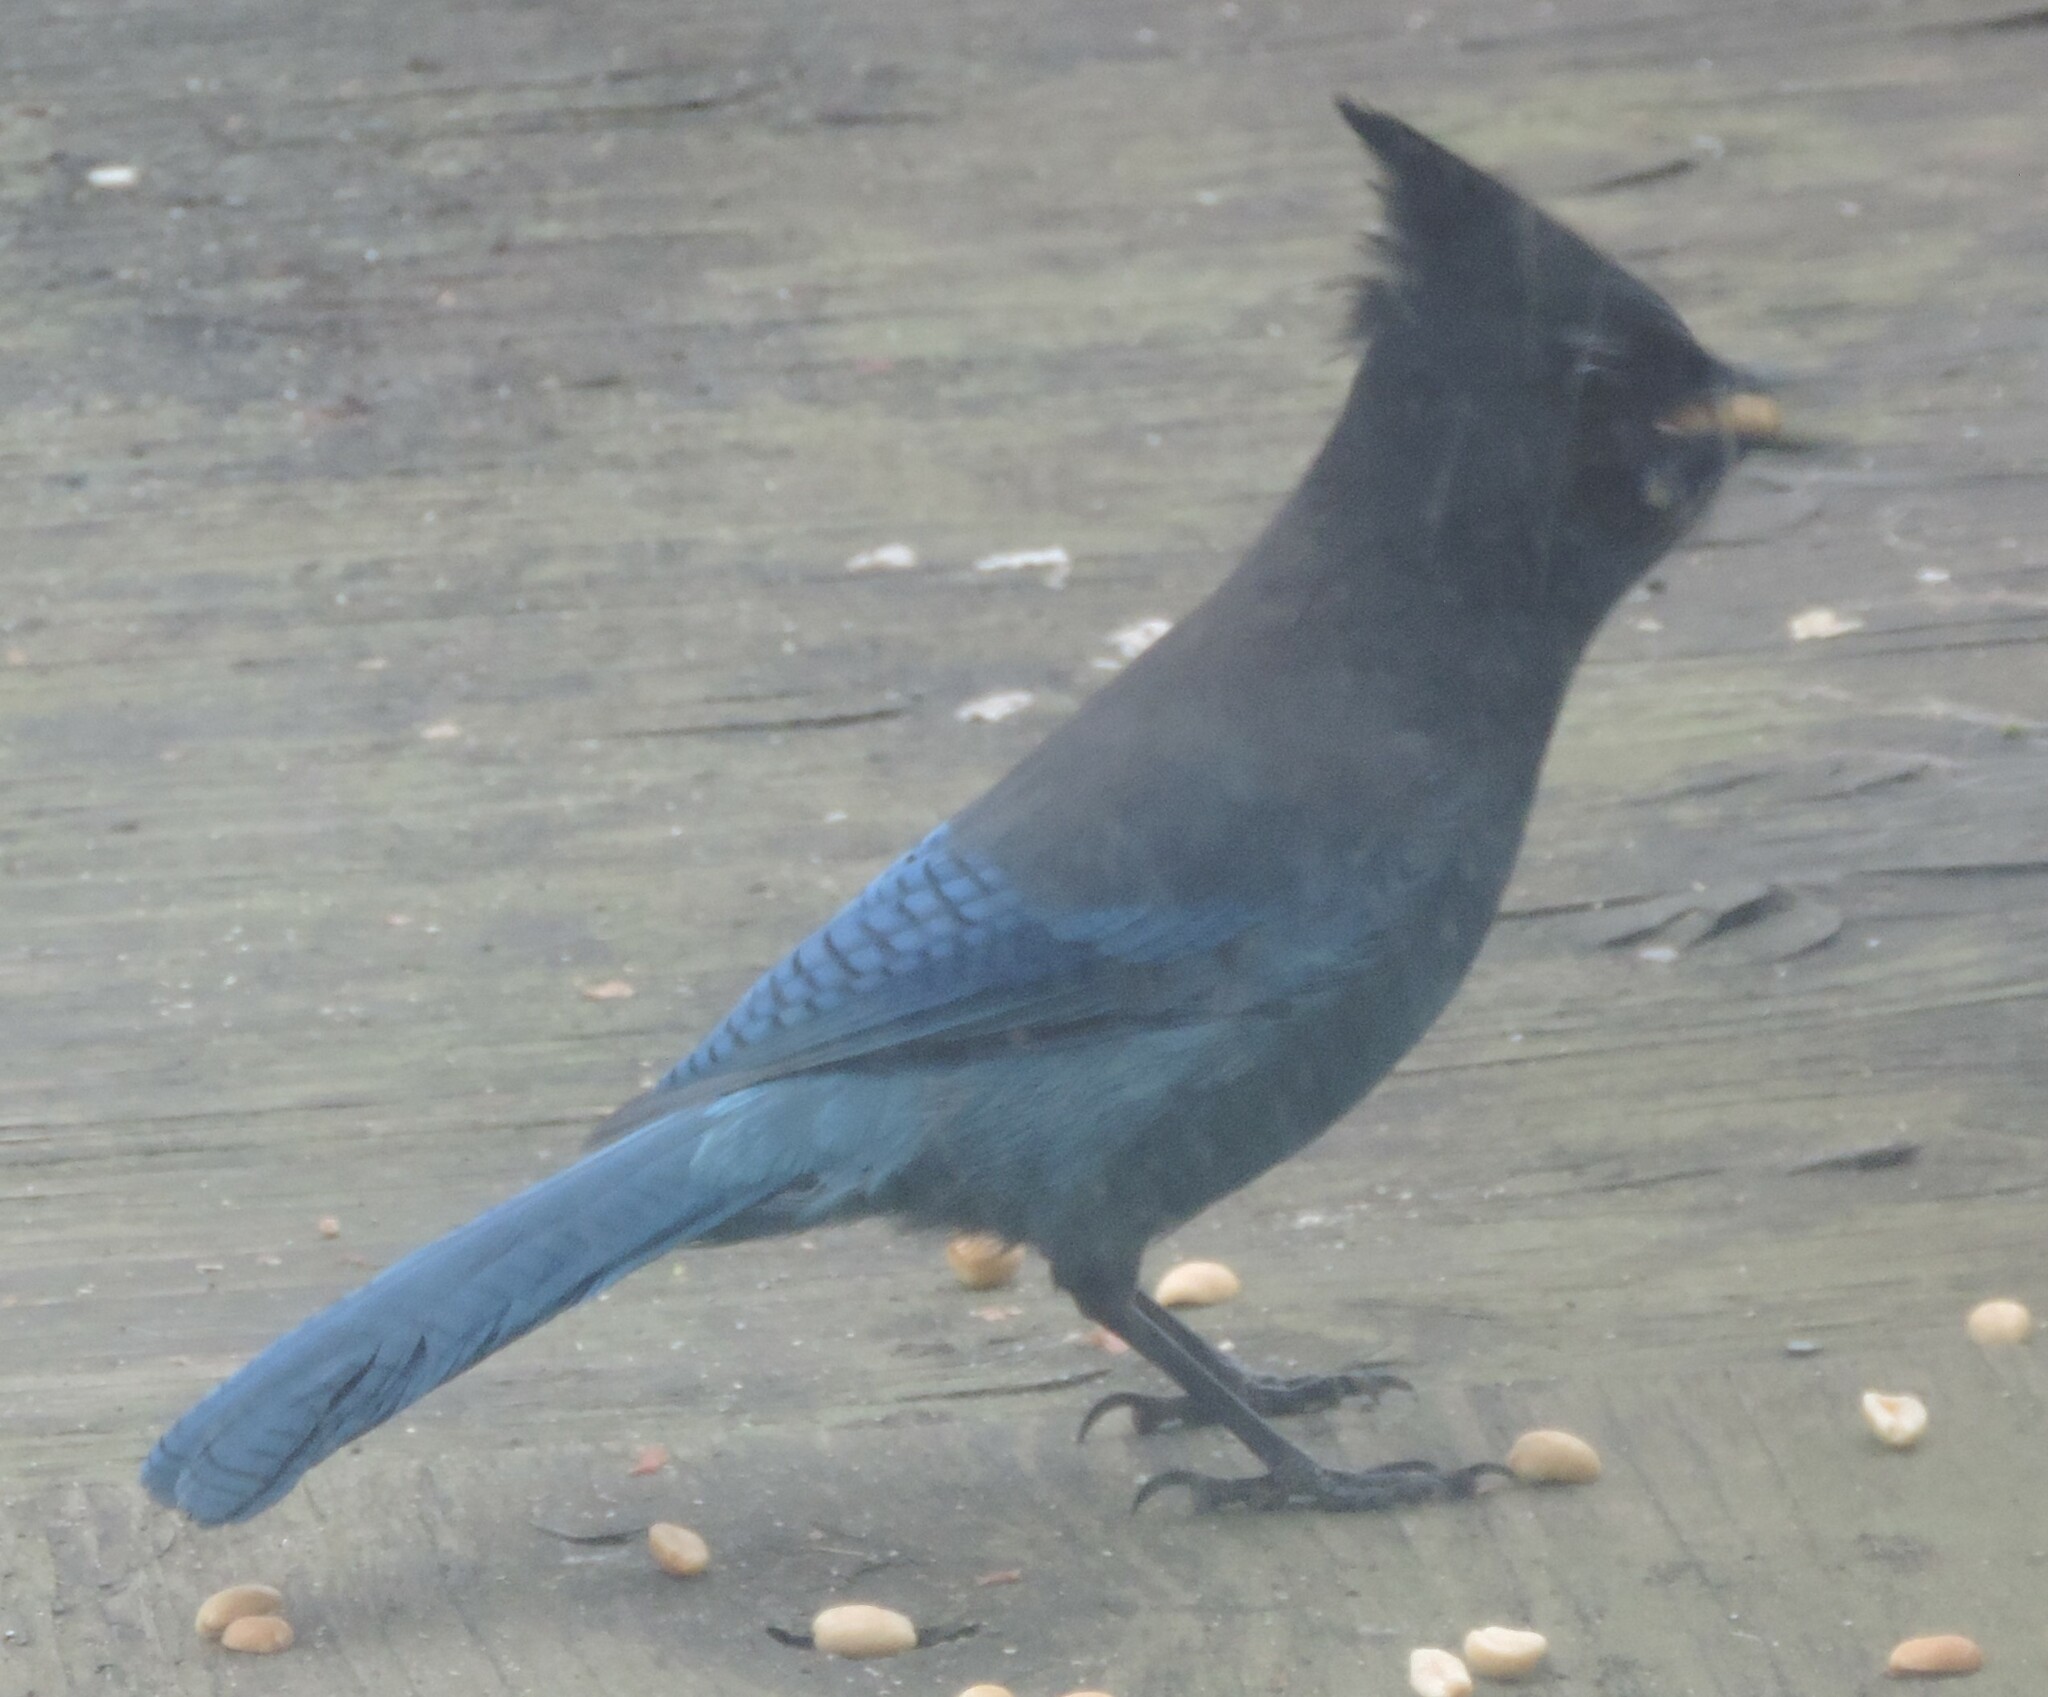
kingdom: Animalia
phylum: Chordata
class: Aves
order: Passeriformes
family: Corvidae
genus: Cyanocitta
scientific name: Cyanocitta stelleri
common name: Steller's jay
